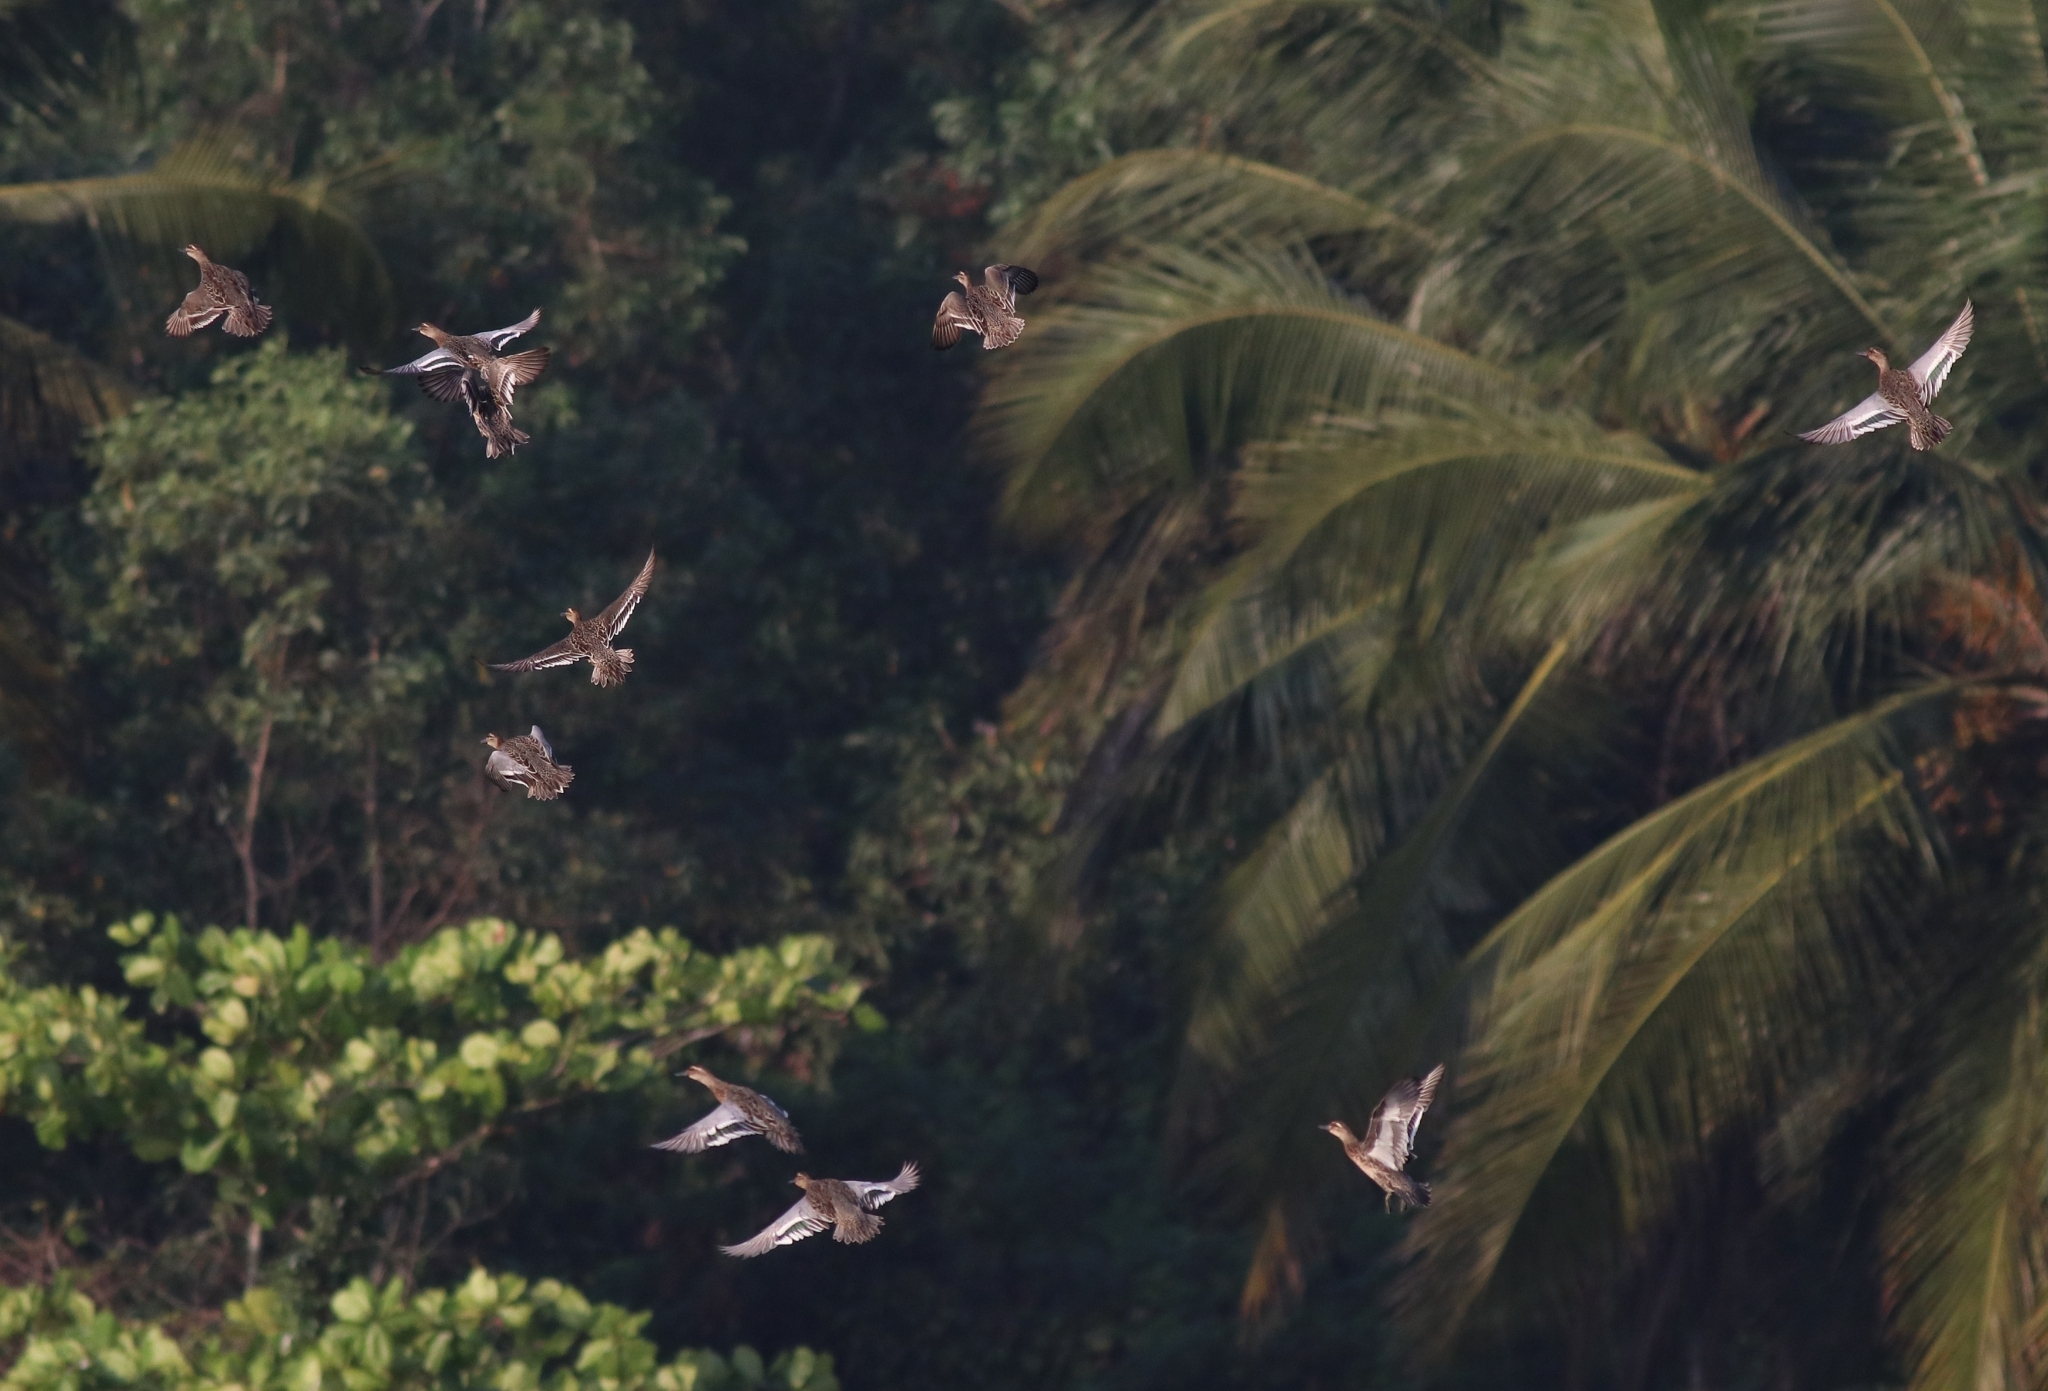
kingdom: Animalia
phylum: Chordata
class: Aves
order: Anseriformes
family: Anatidae
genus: Spatula
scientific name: Spatula querquedula
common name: Garganey
